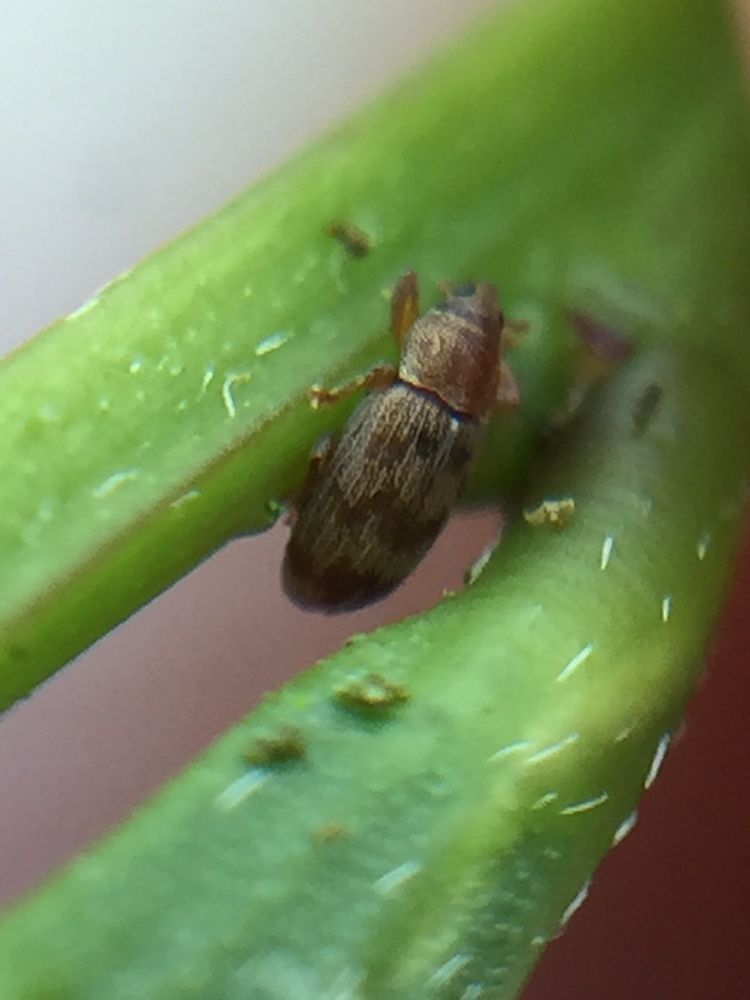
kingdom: Animalia
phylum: Arthropoda
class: Insecta
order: Coleoptera
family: Curculionidae
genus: Epamoebus
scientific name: Epamoebus ziczac
